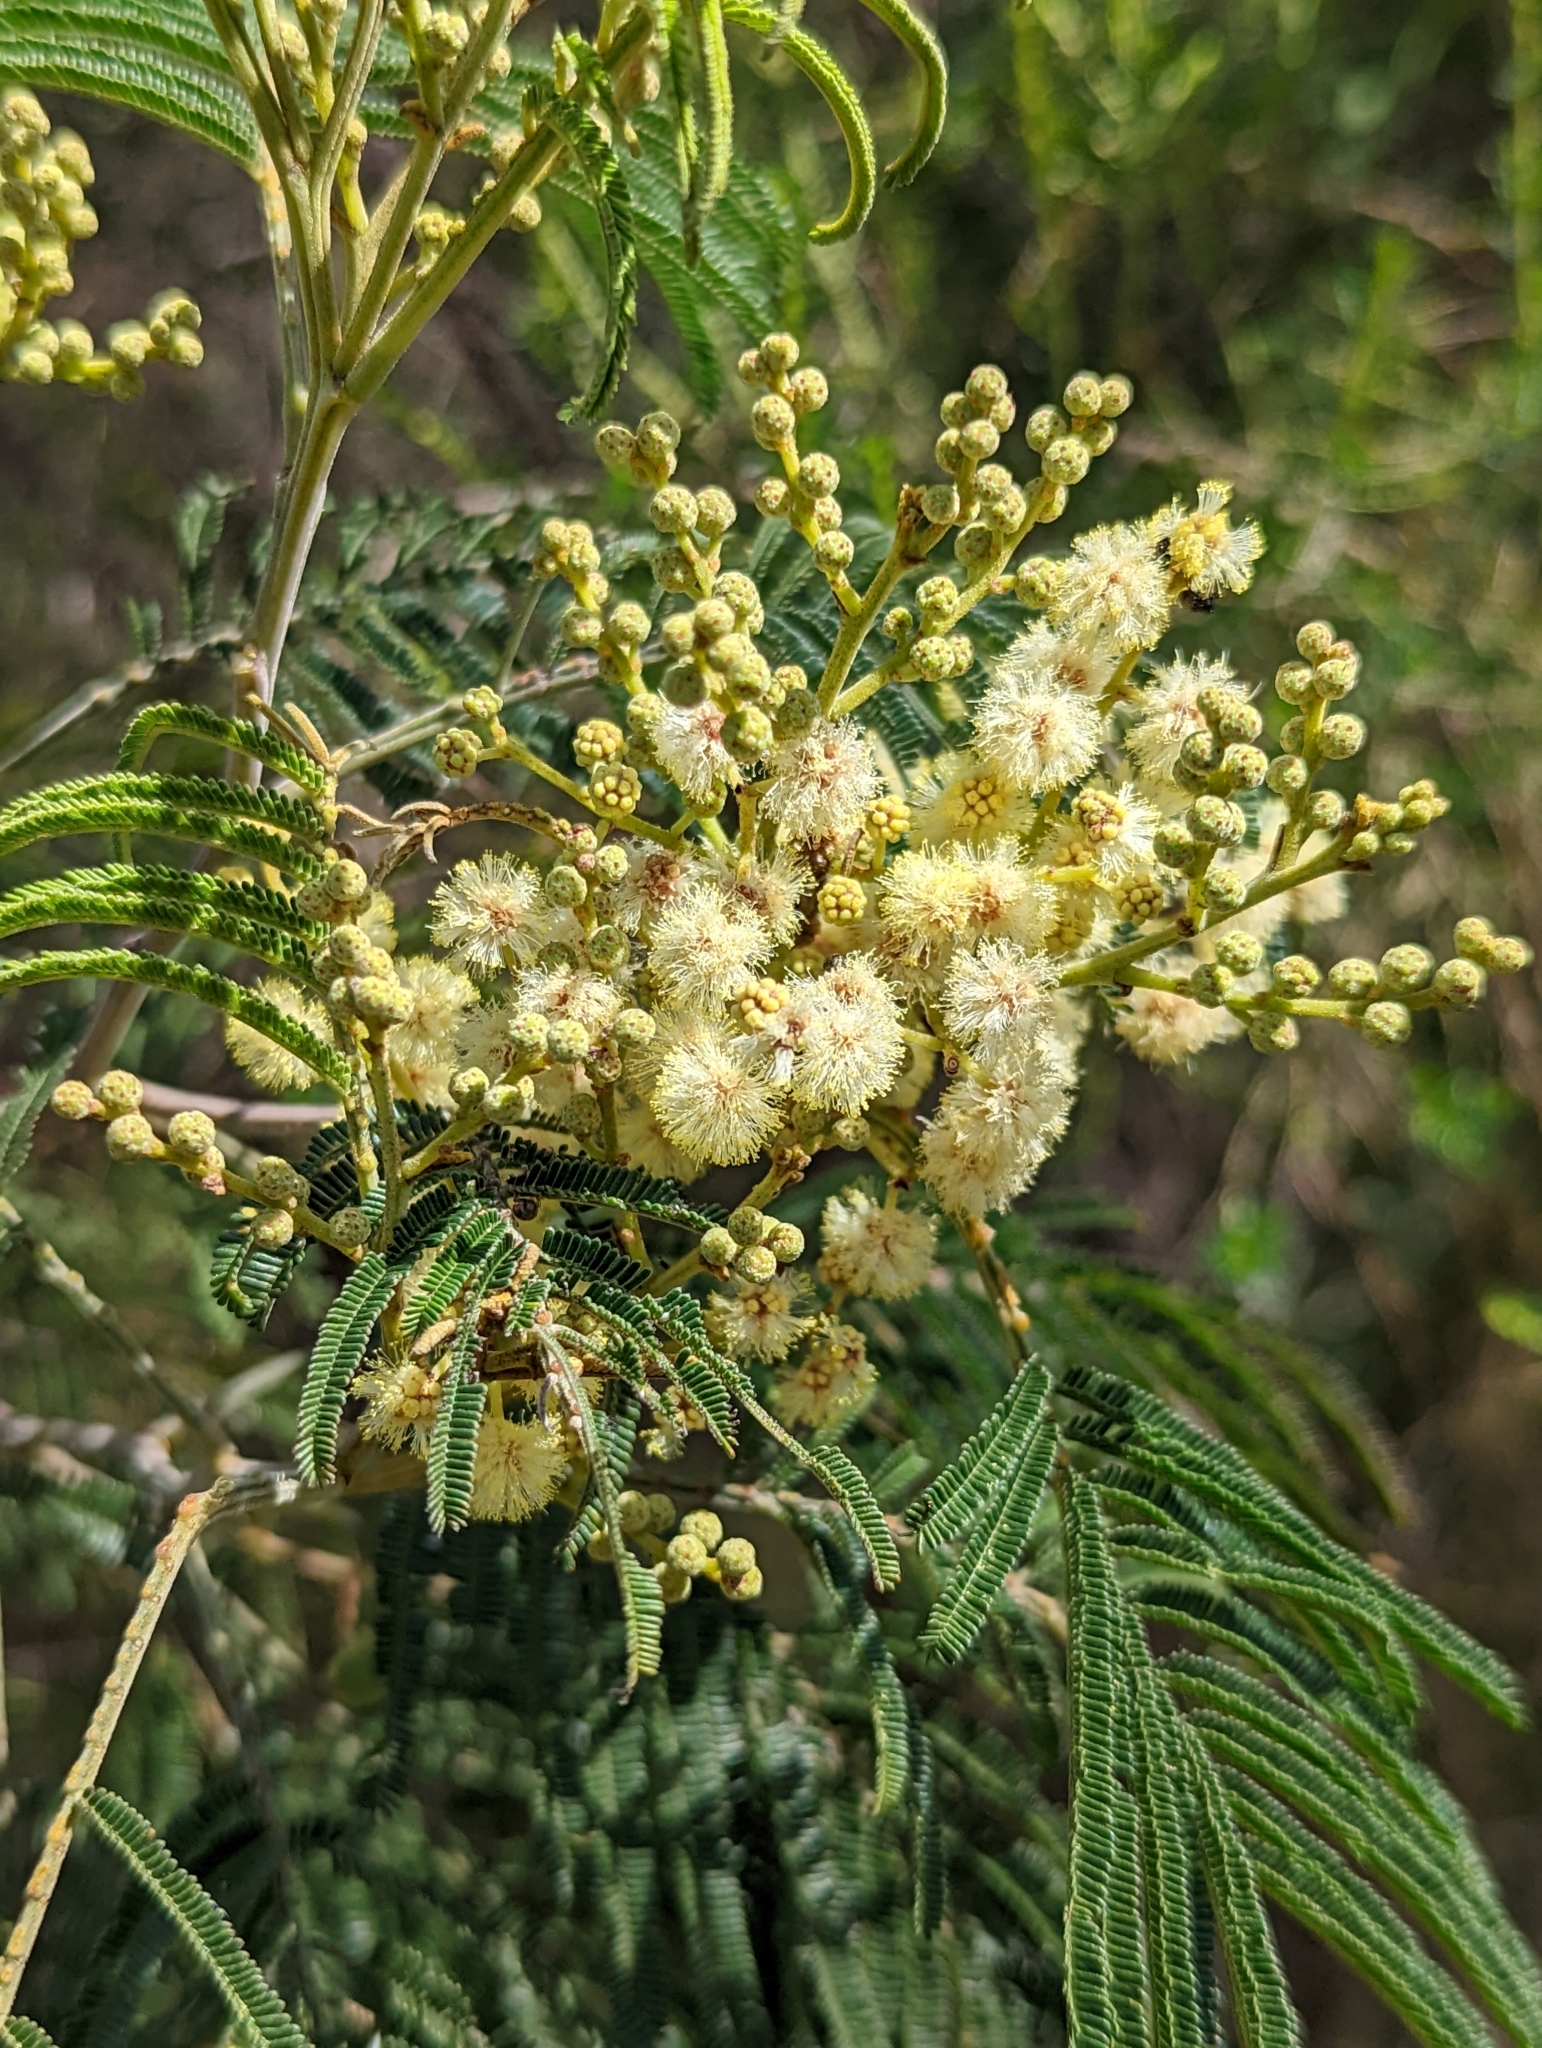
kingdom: Plantae
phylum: Tracheophyta
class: Magnoliopsida
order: Fabales
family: Fabaceae
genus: Acacia
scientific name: Acacia mearnsii
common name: Black wattle
